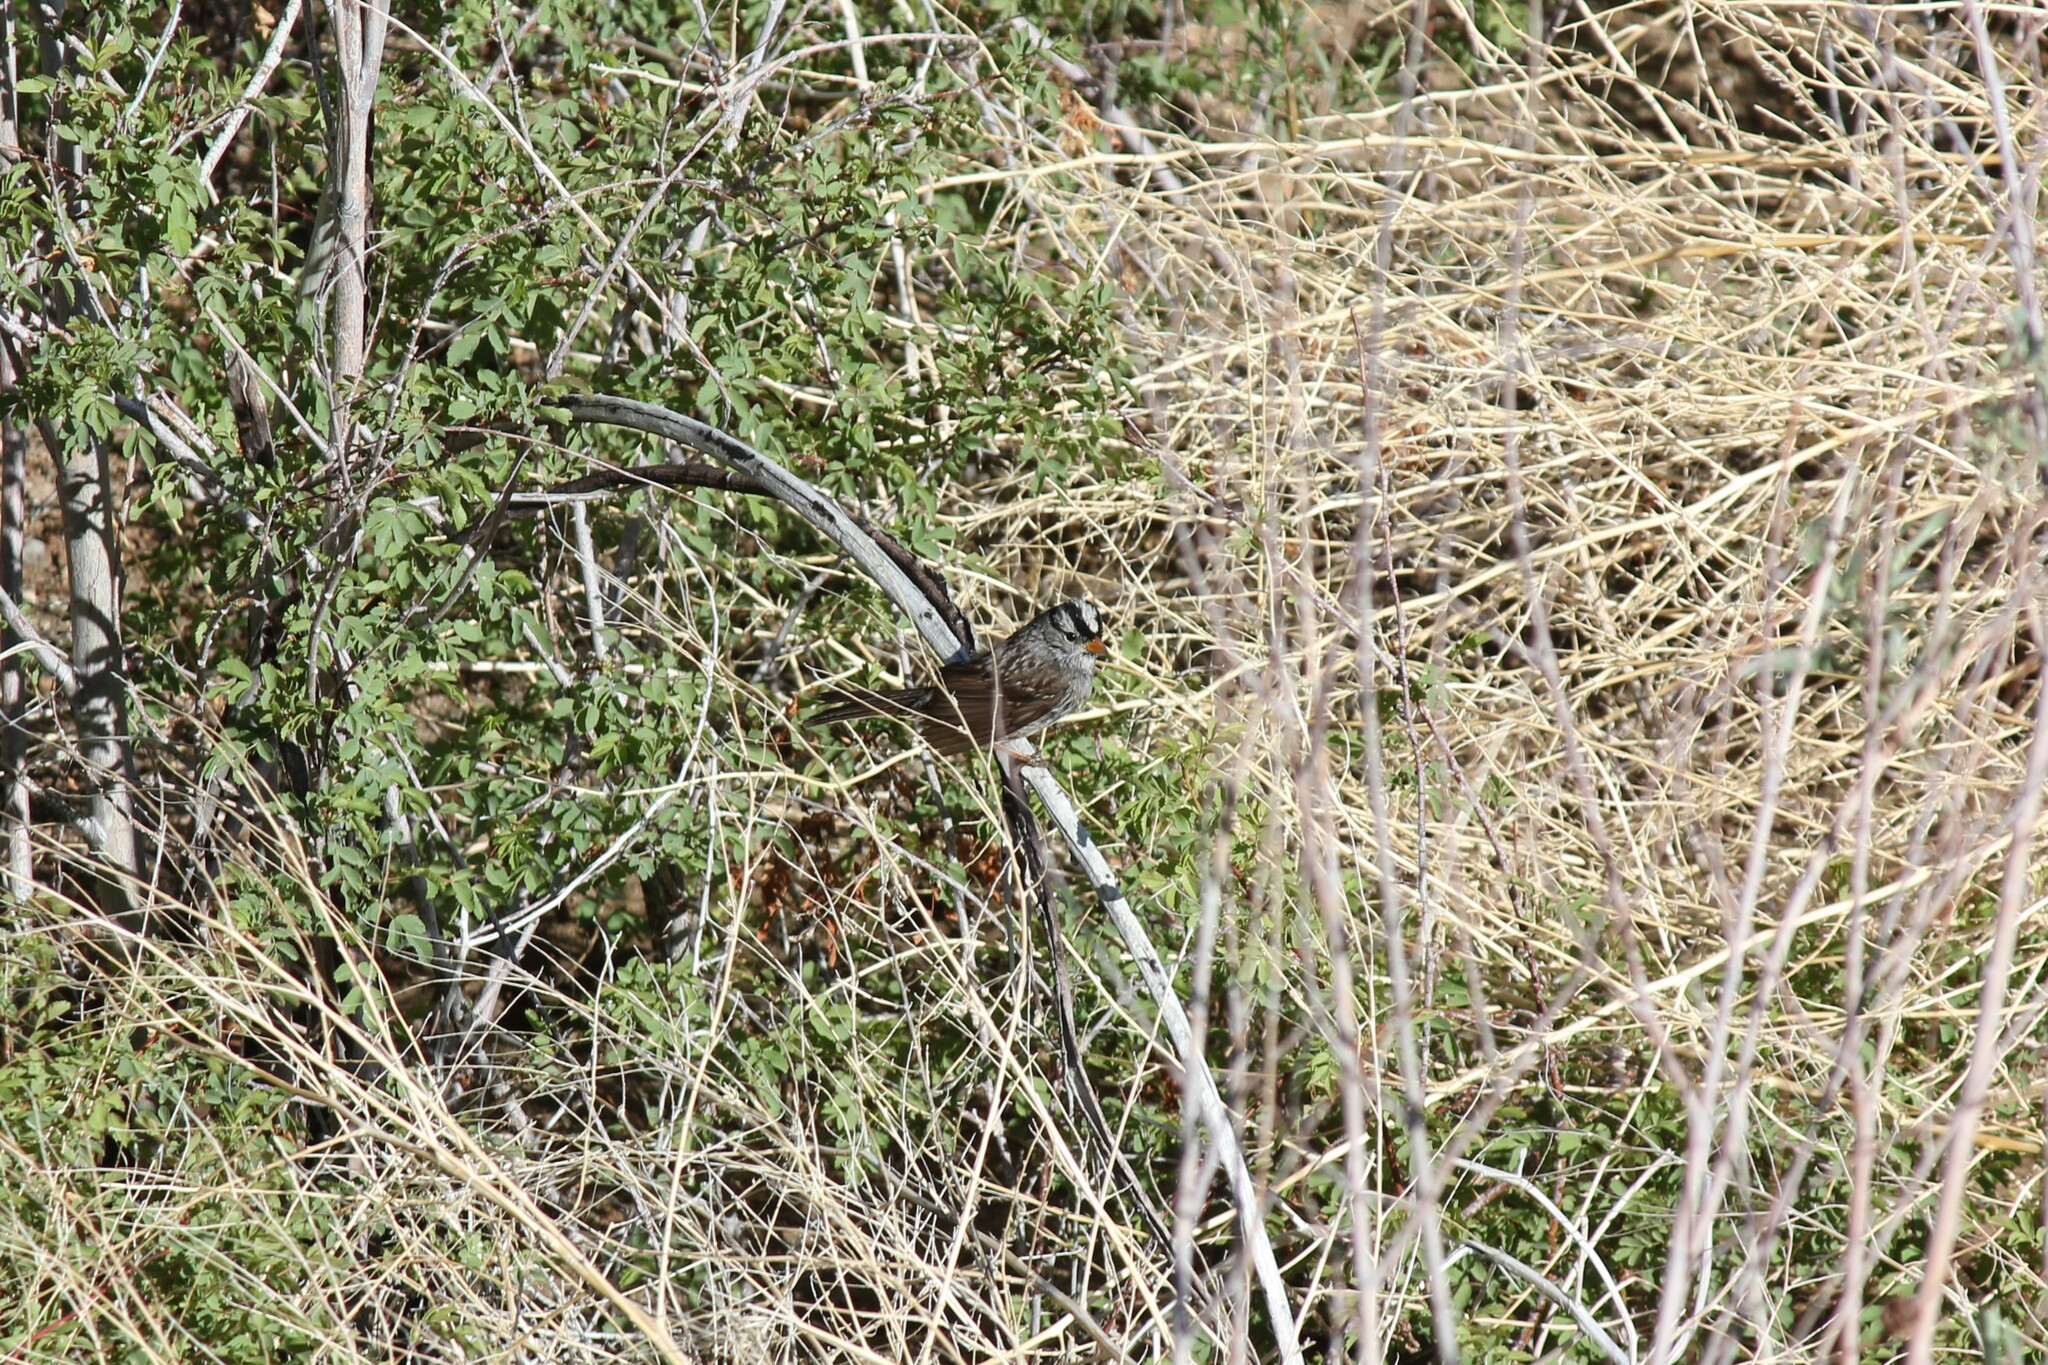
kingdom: Animalia
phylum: Chordata
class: Aves
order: Passeriformes
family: Passerellidae
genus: Zonotrichia
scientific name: Zonotrichia leucophrys
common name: White-crowned sparrow
